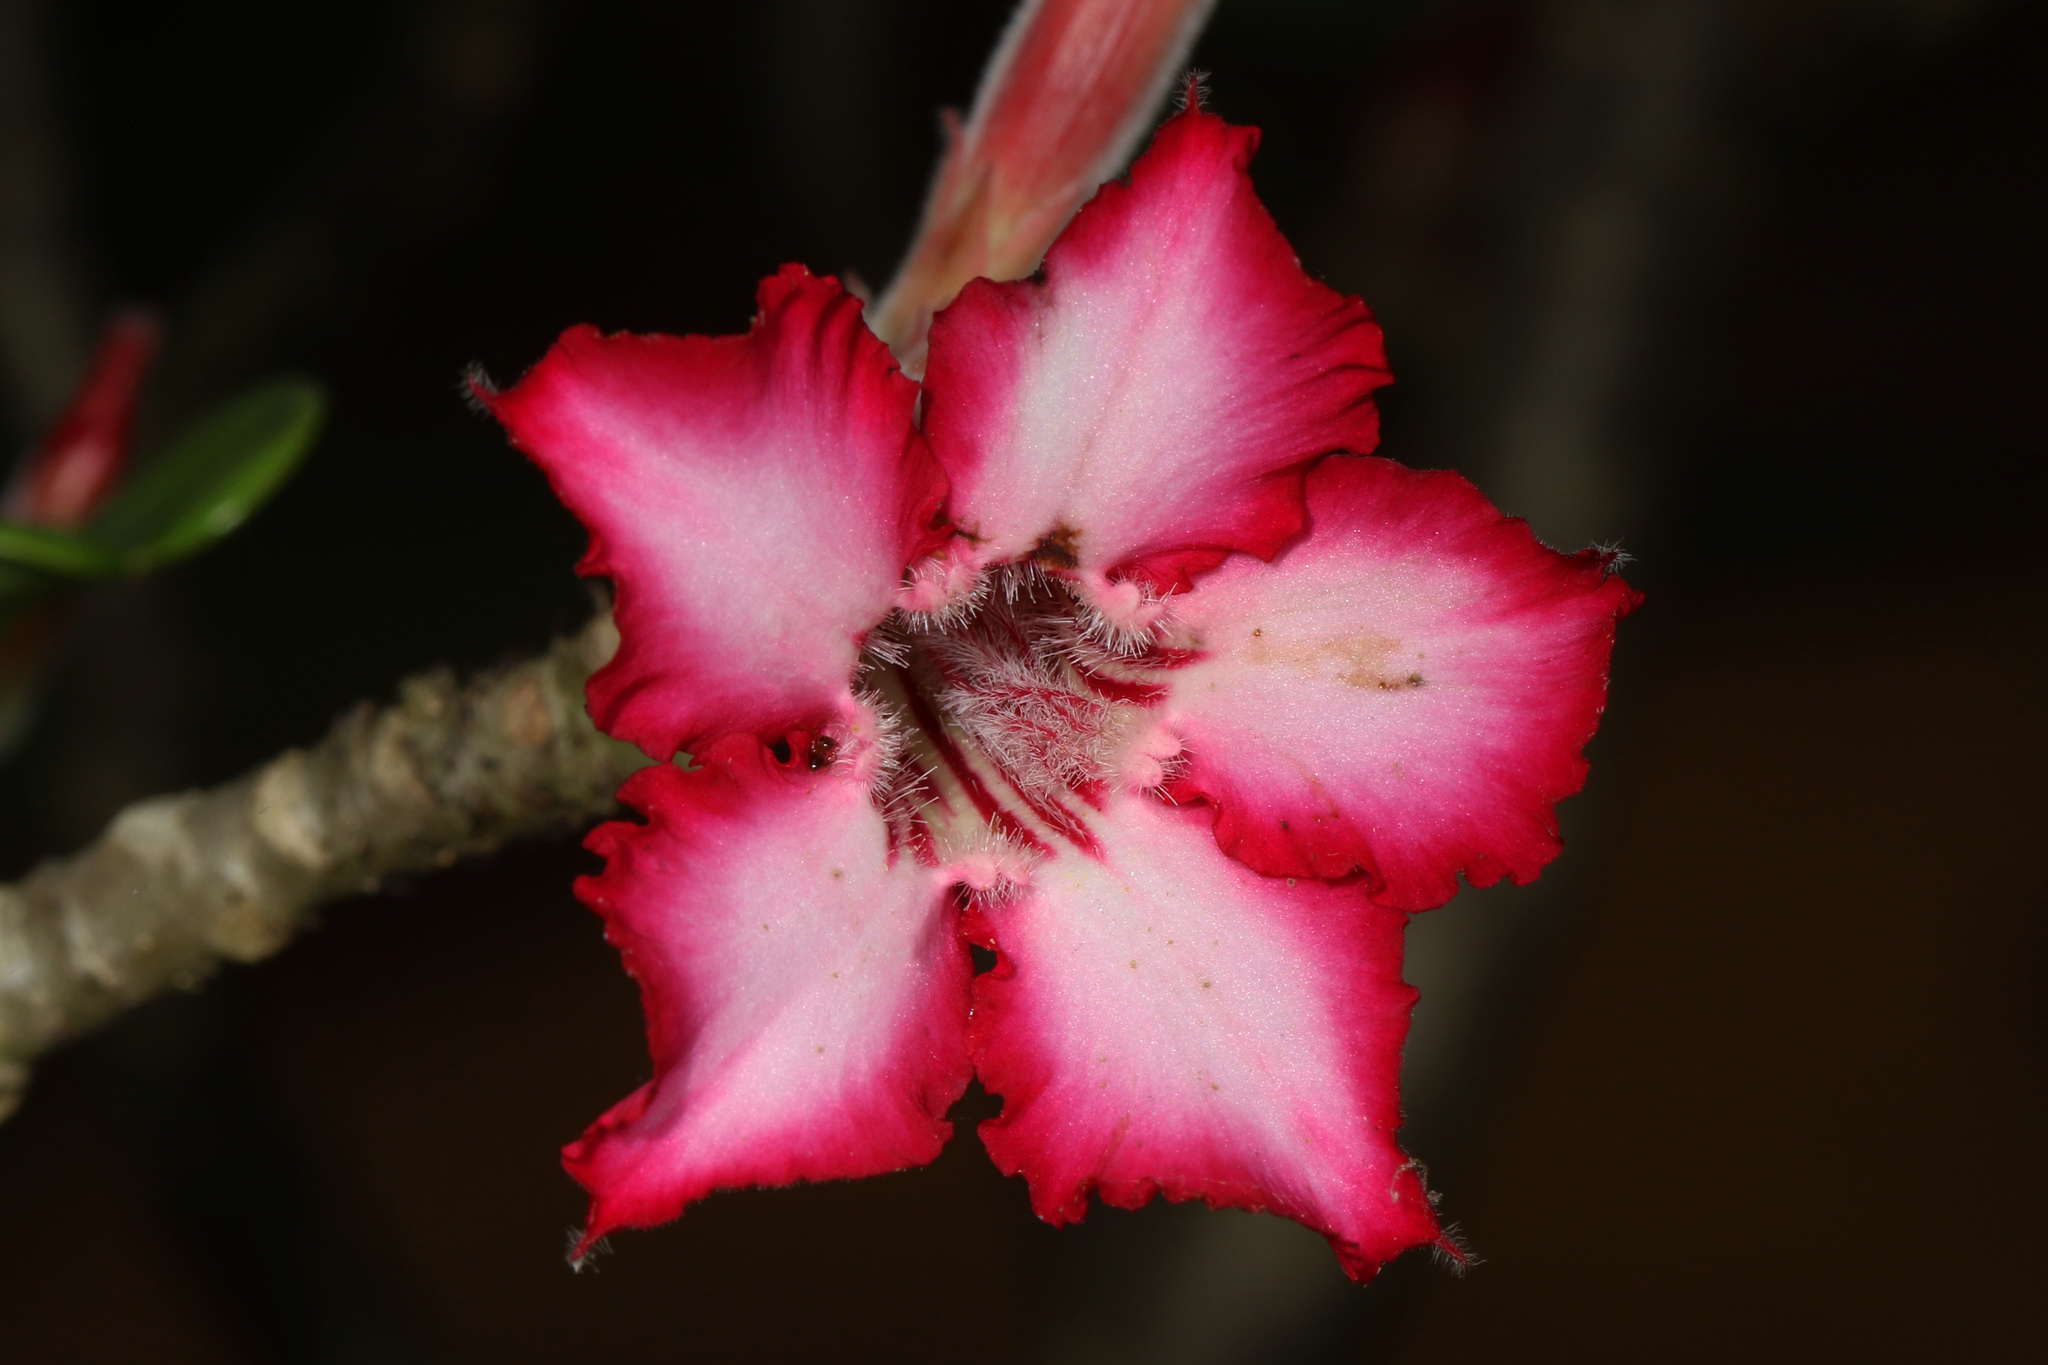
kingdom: Plantae
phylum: Tracheophyta
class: Magnoliopsida
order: Gentianales
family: Apocynaceae
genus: Adenium
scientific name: Adenium obesum
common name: Desert-rose
